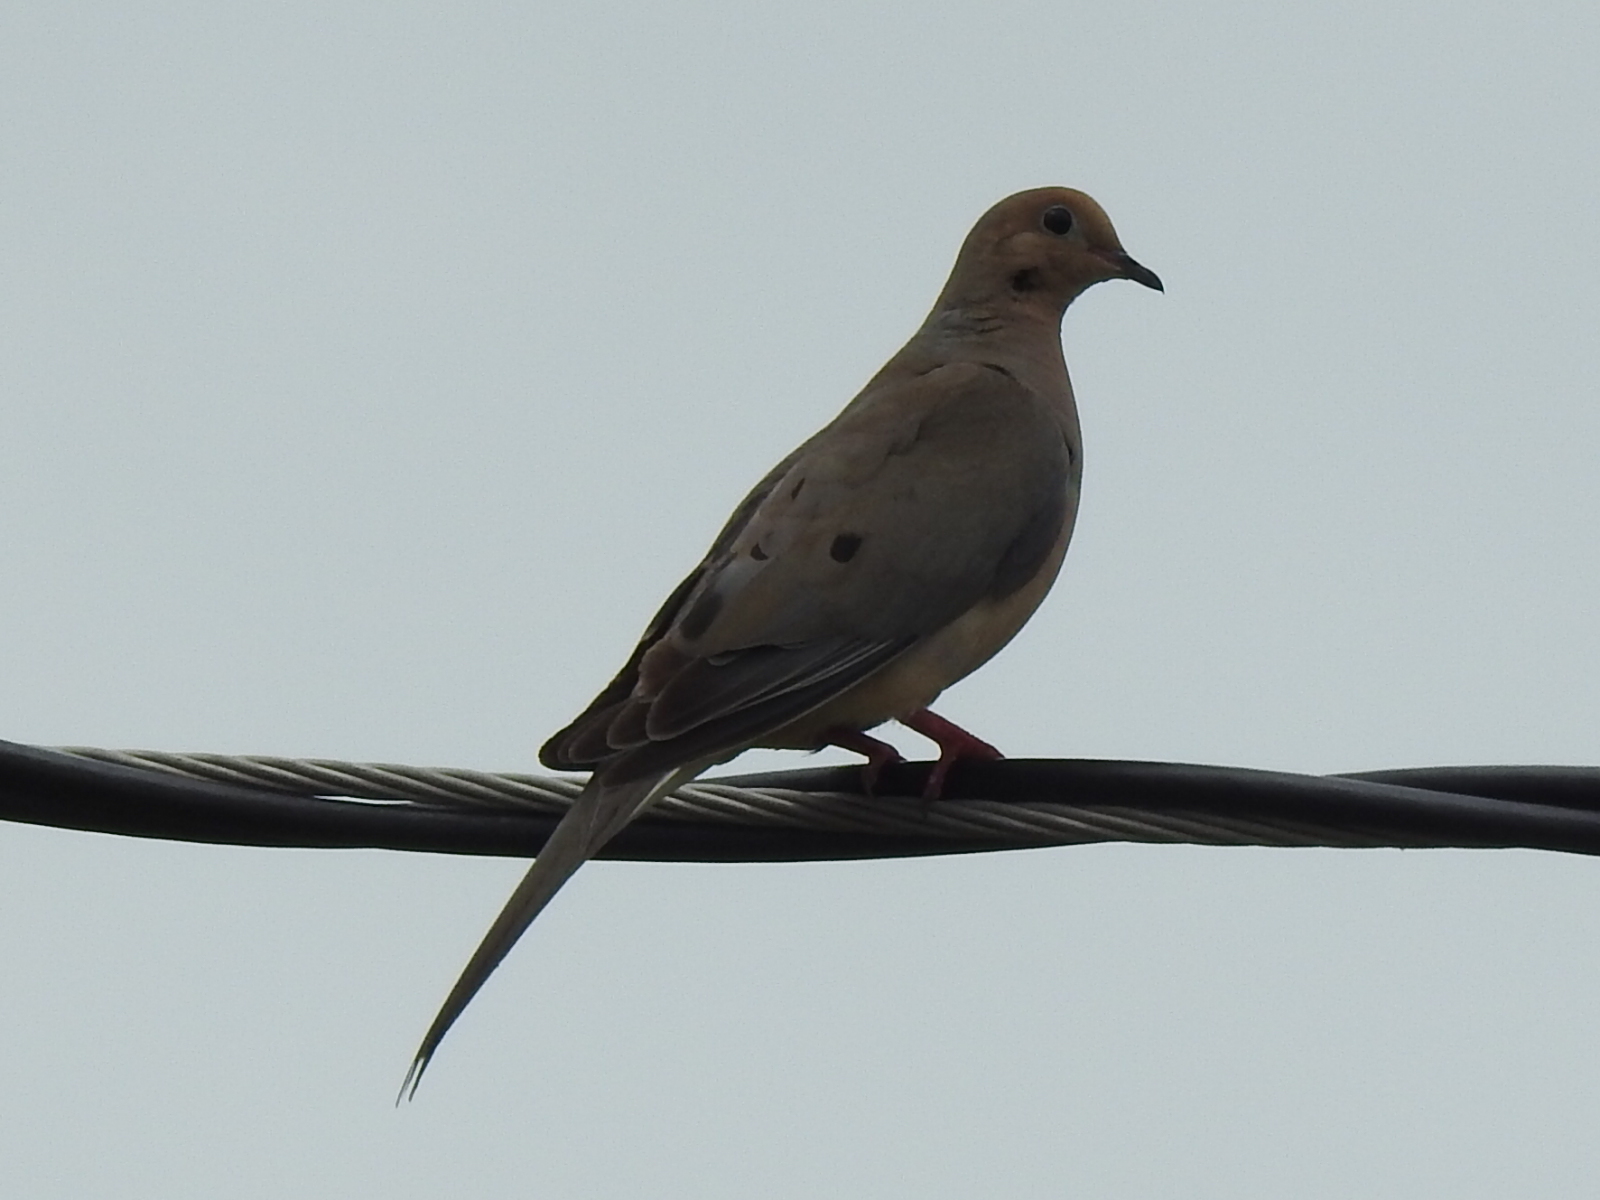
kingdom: Animalia
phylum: Chordata
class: Aves
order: Columbiformes
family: Columbidae
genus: Zenaida
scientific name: Zenaida macroura
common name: Mourning dove
